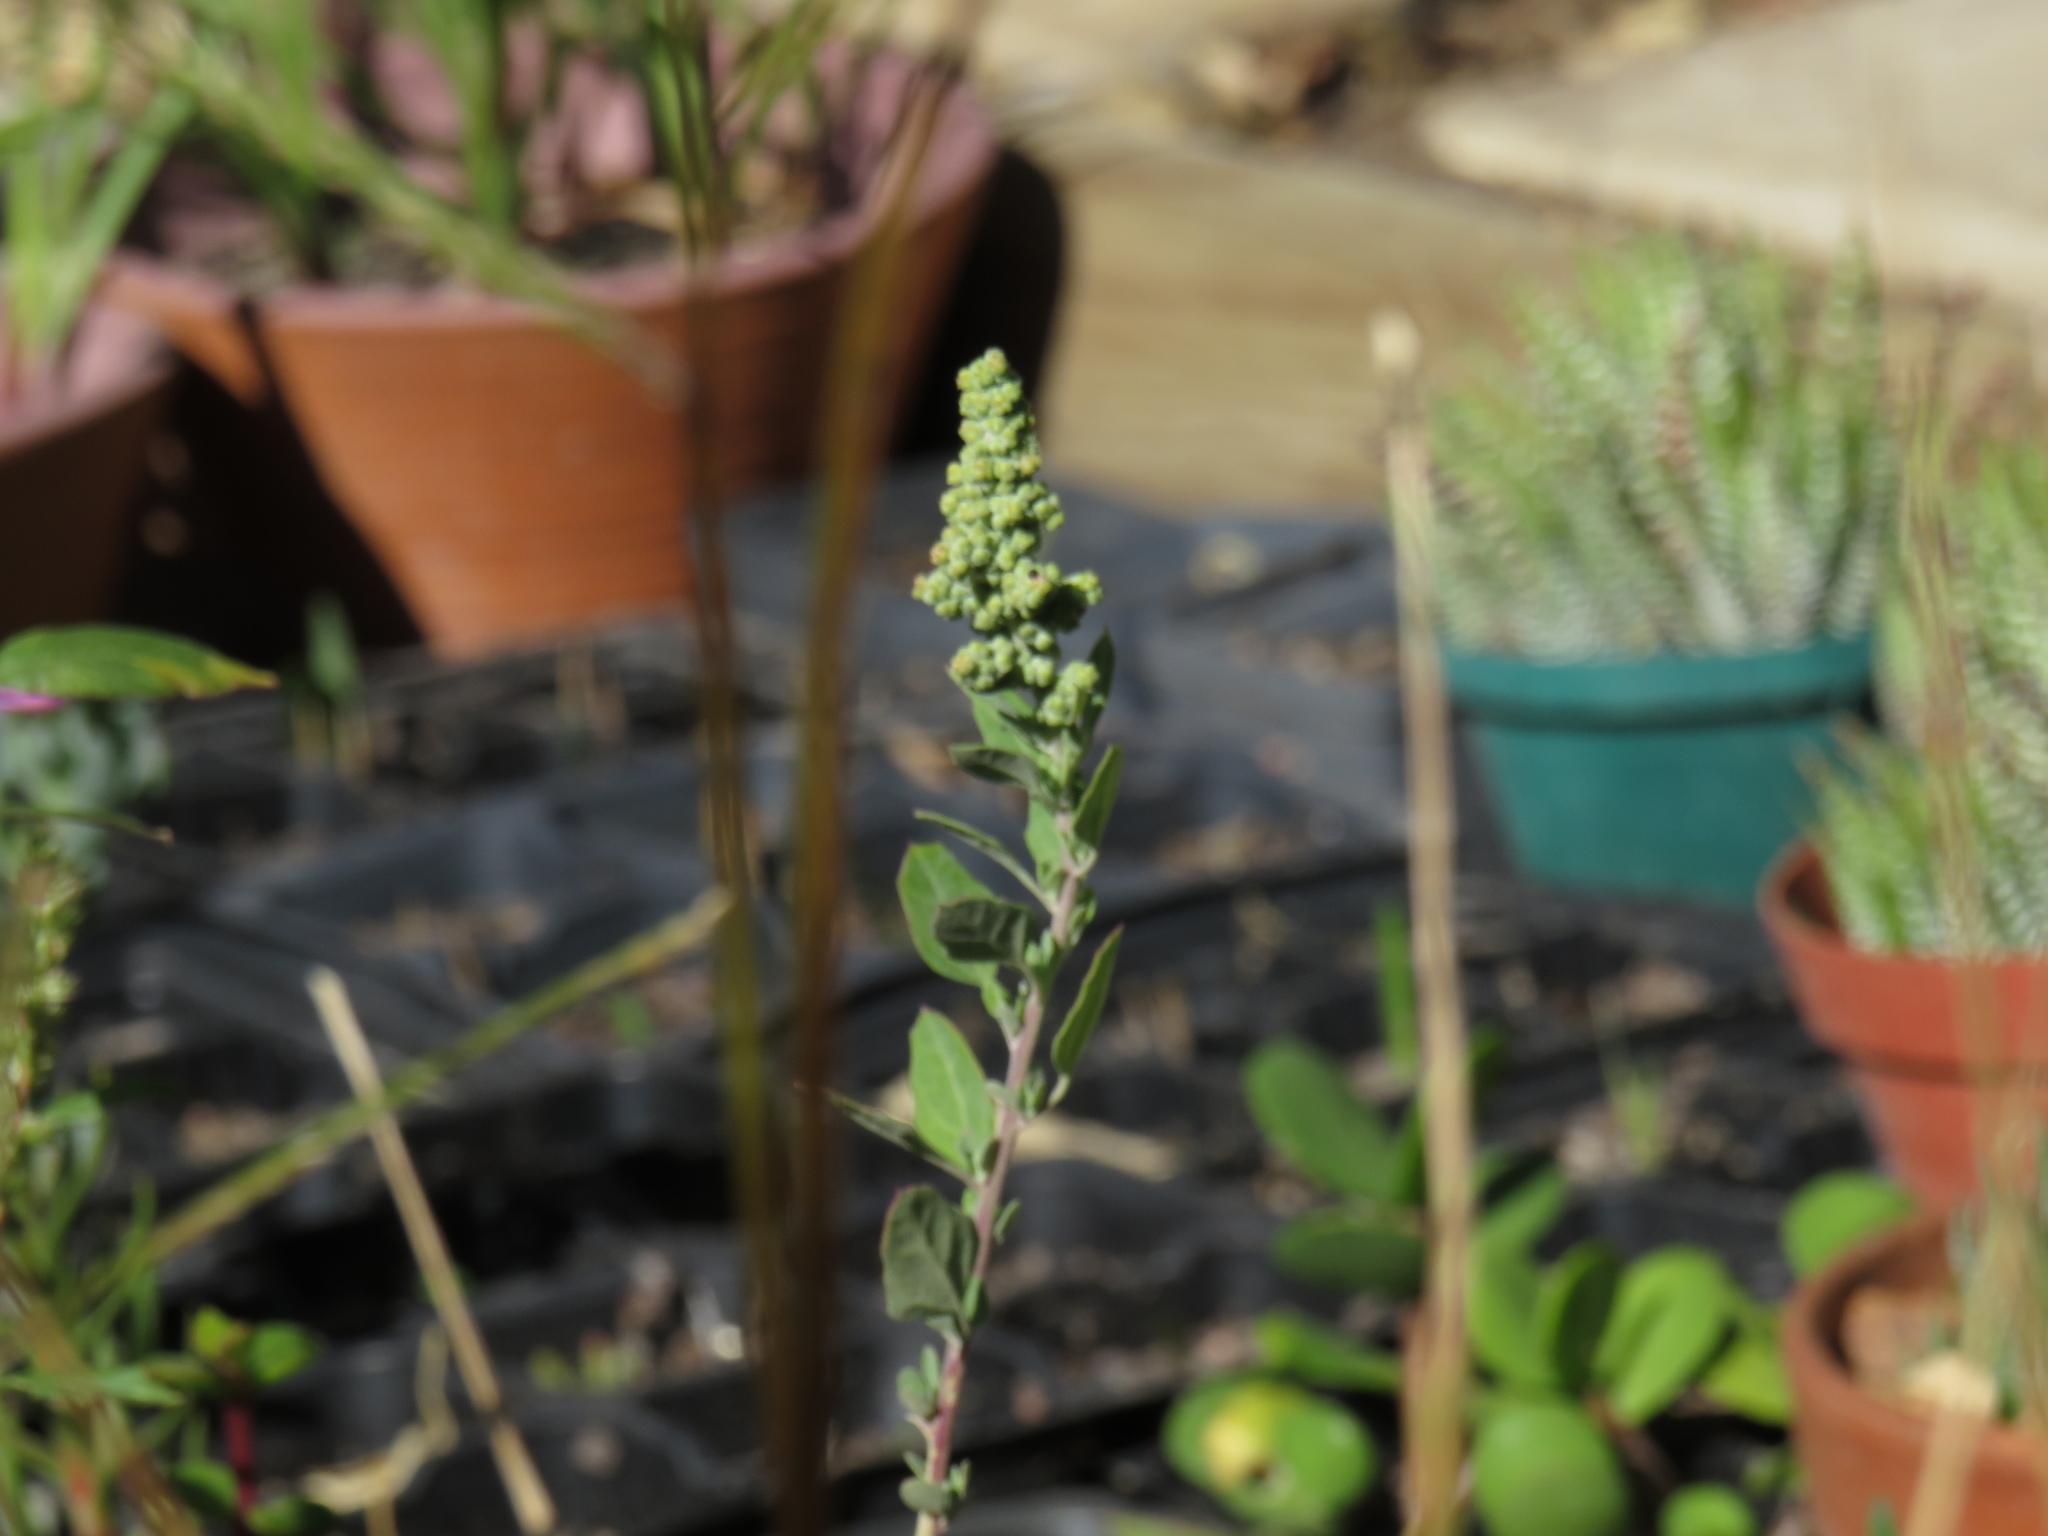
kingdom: Plantae
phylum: Tracheophyta
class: Magnoliopsida
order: Caryophyllales
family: Amaranthaceae
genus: Chenopodium
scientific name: Chenopodium album
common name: Fat-hen
